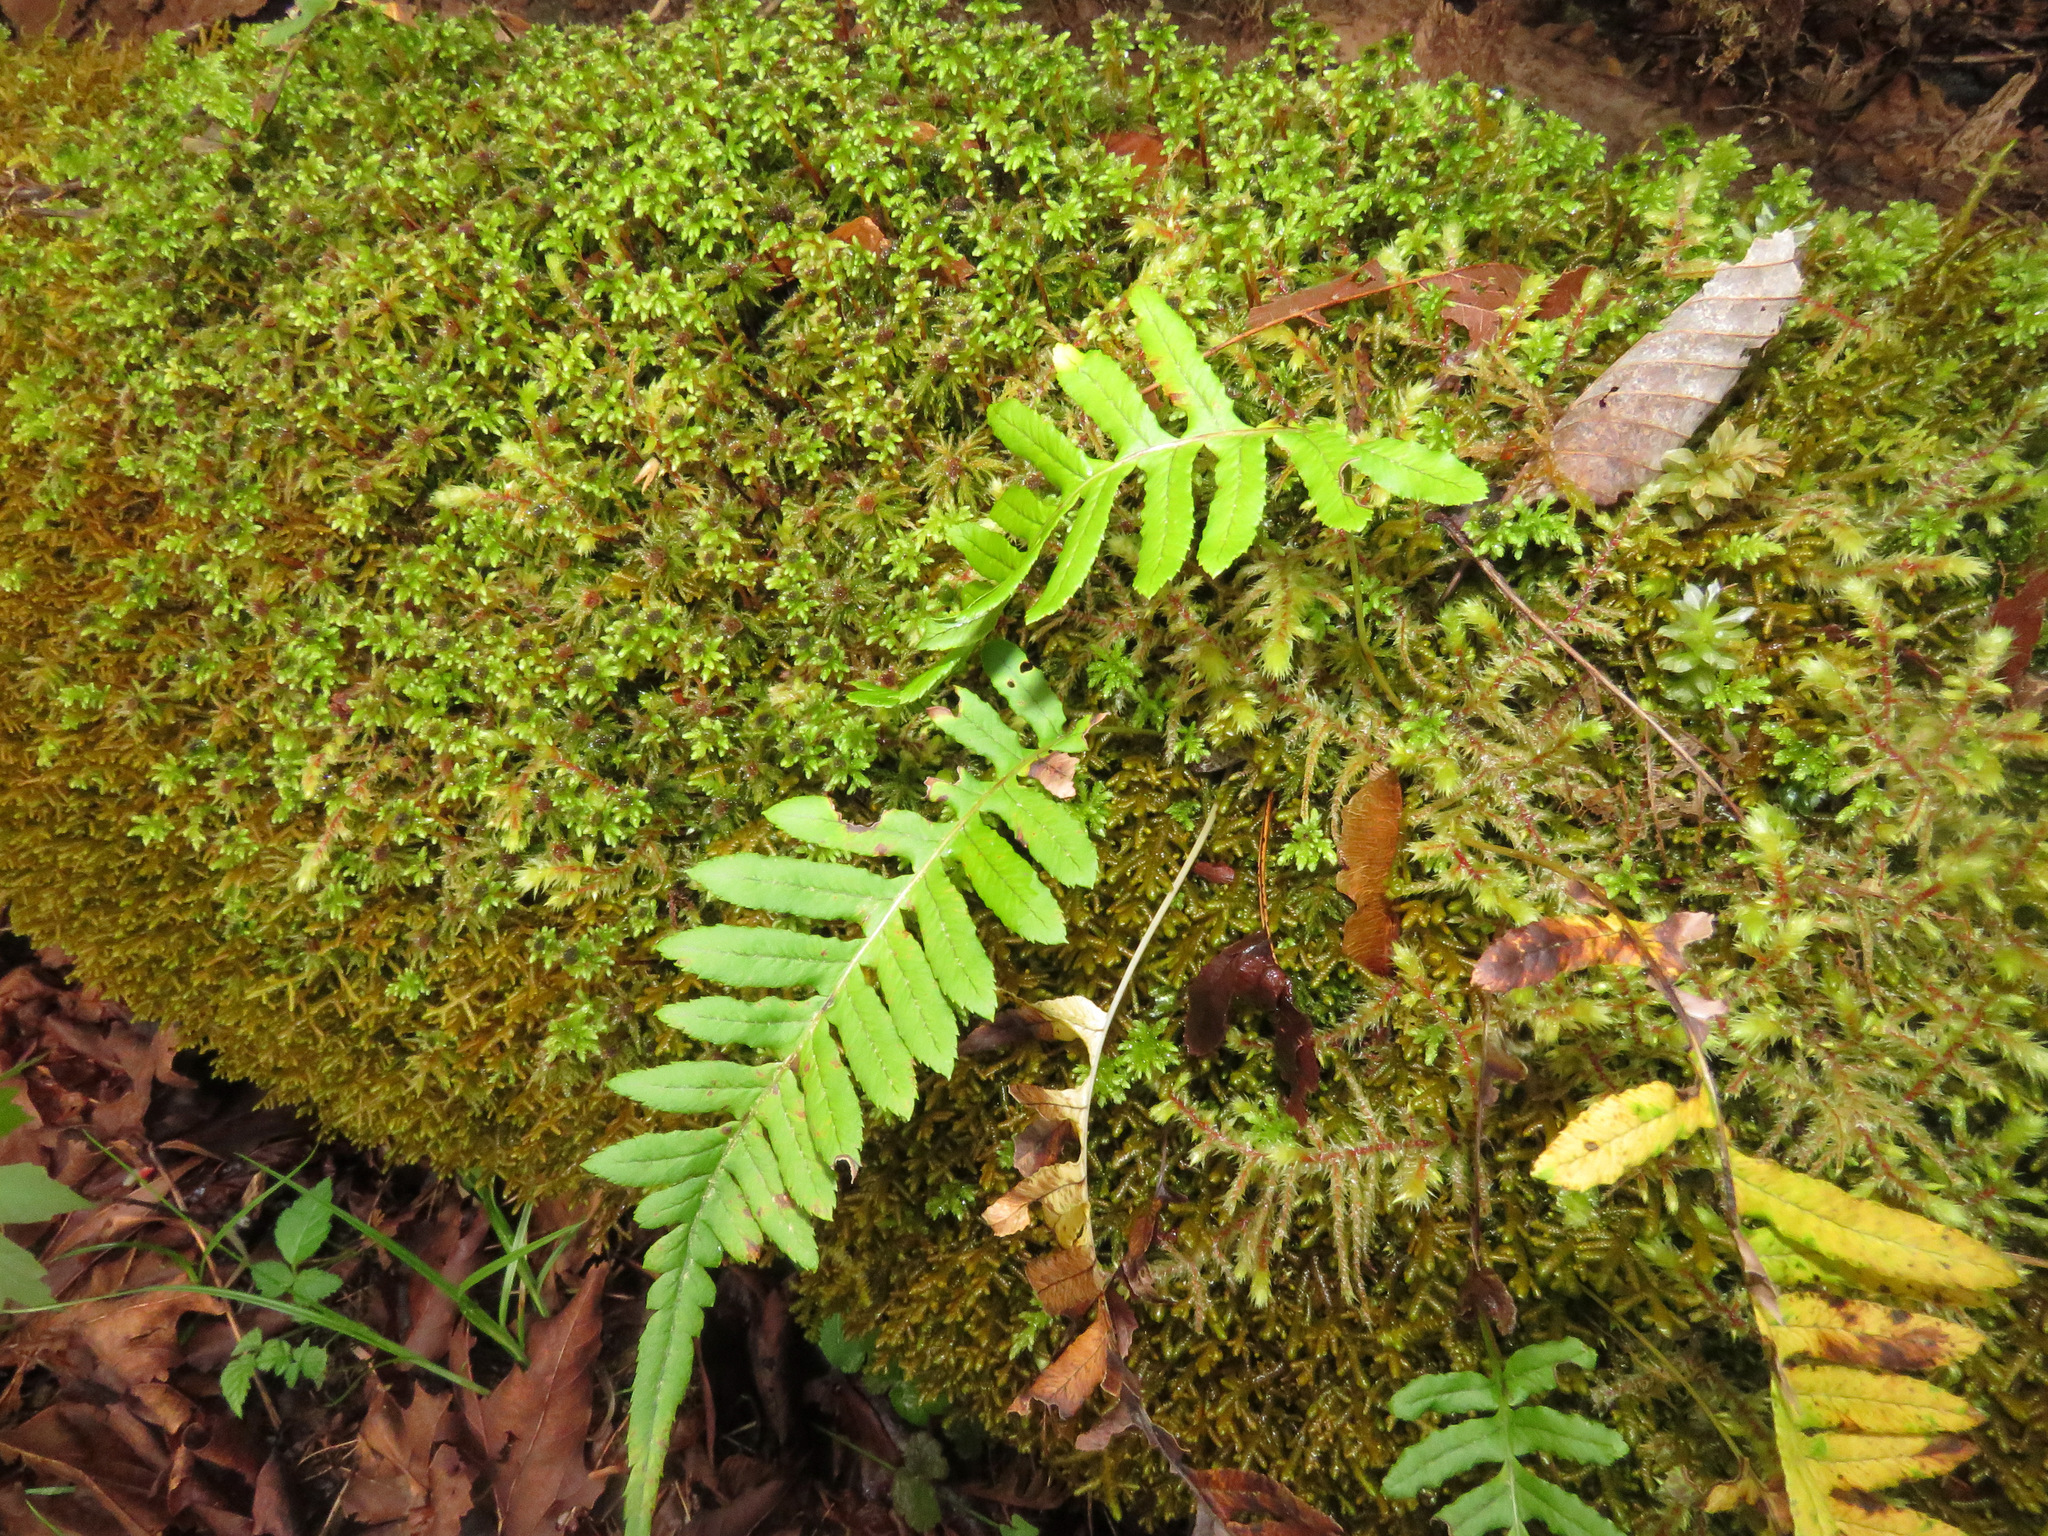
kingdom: Plantae
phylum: Tracheophyta
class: Polypodiopsida
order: Polypodiales
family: Polypodiaceae
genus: Polypodium
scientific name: Polypodium glycyrrhiza
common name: Licorice fern
